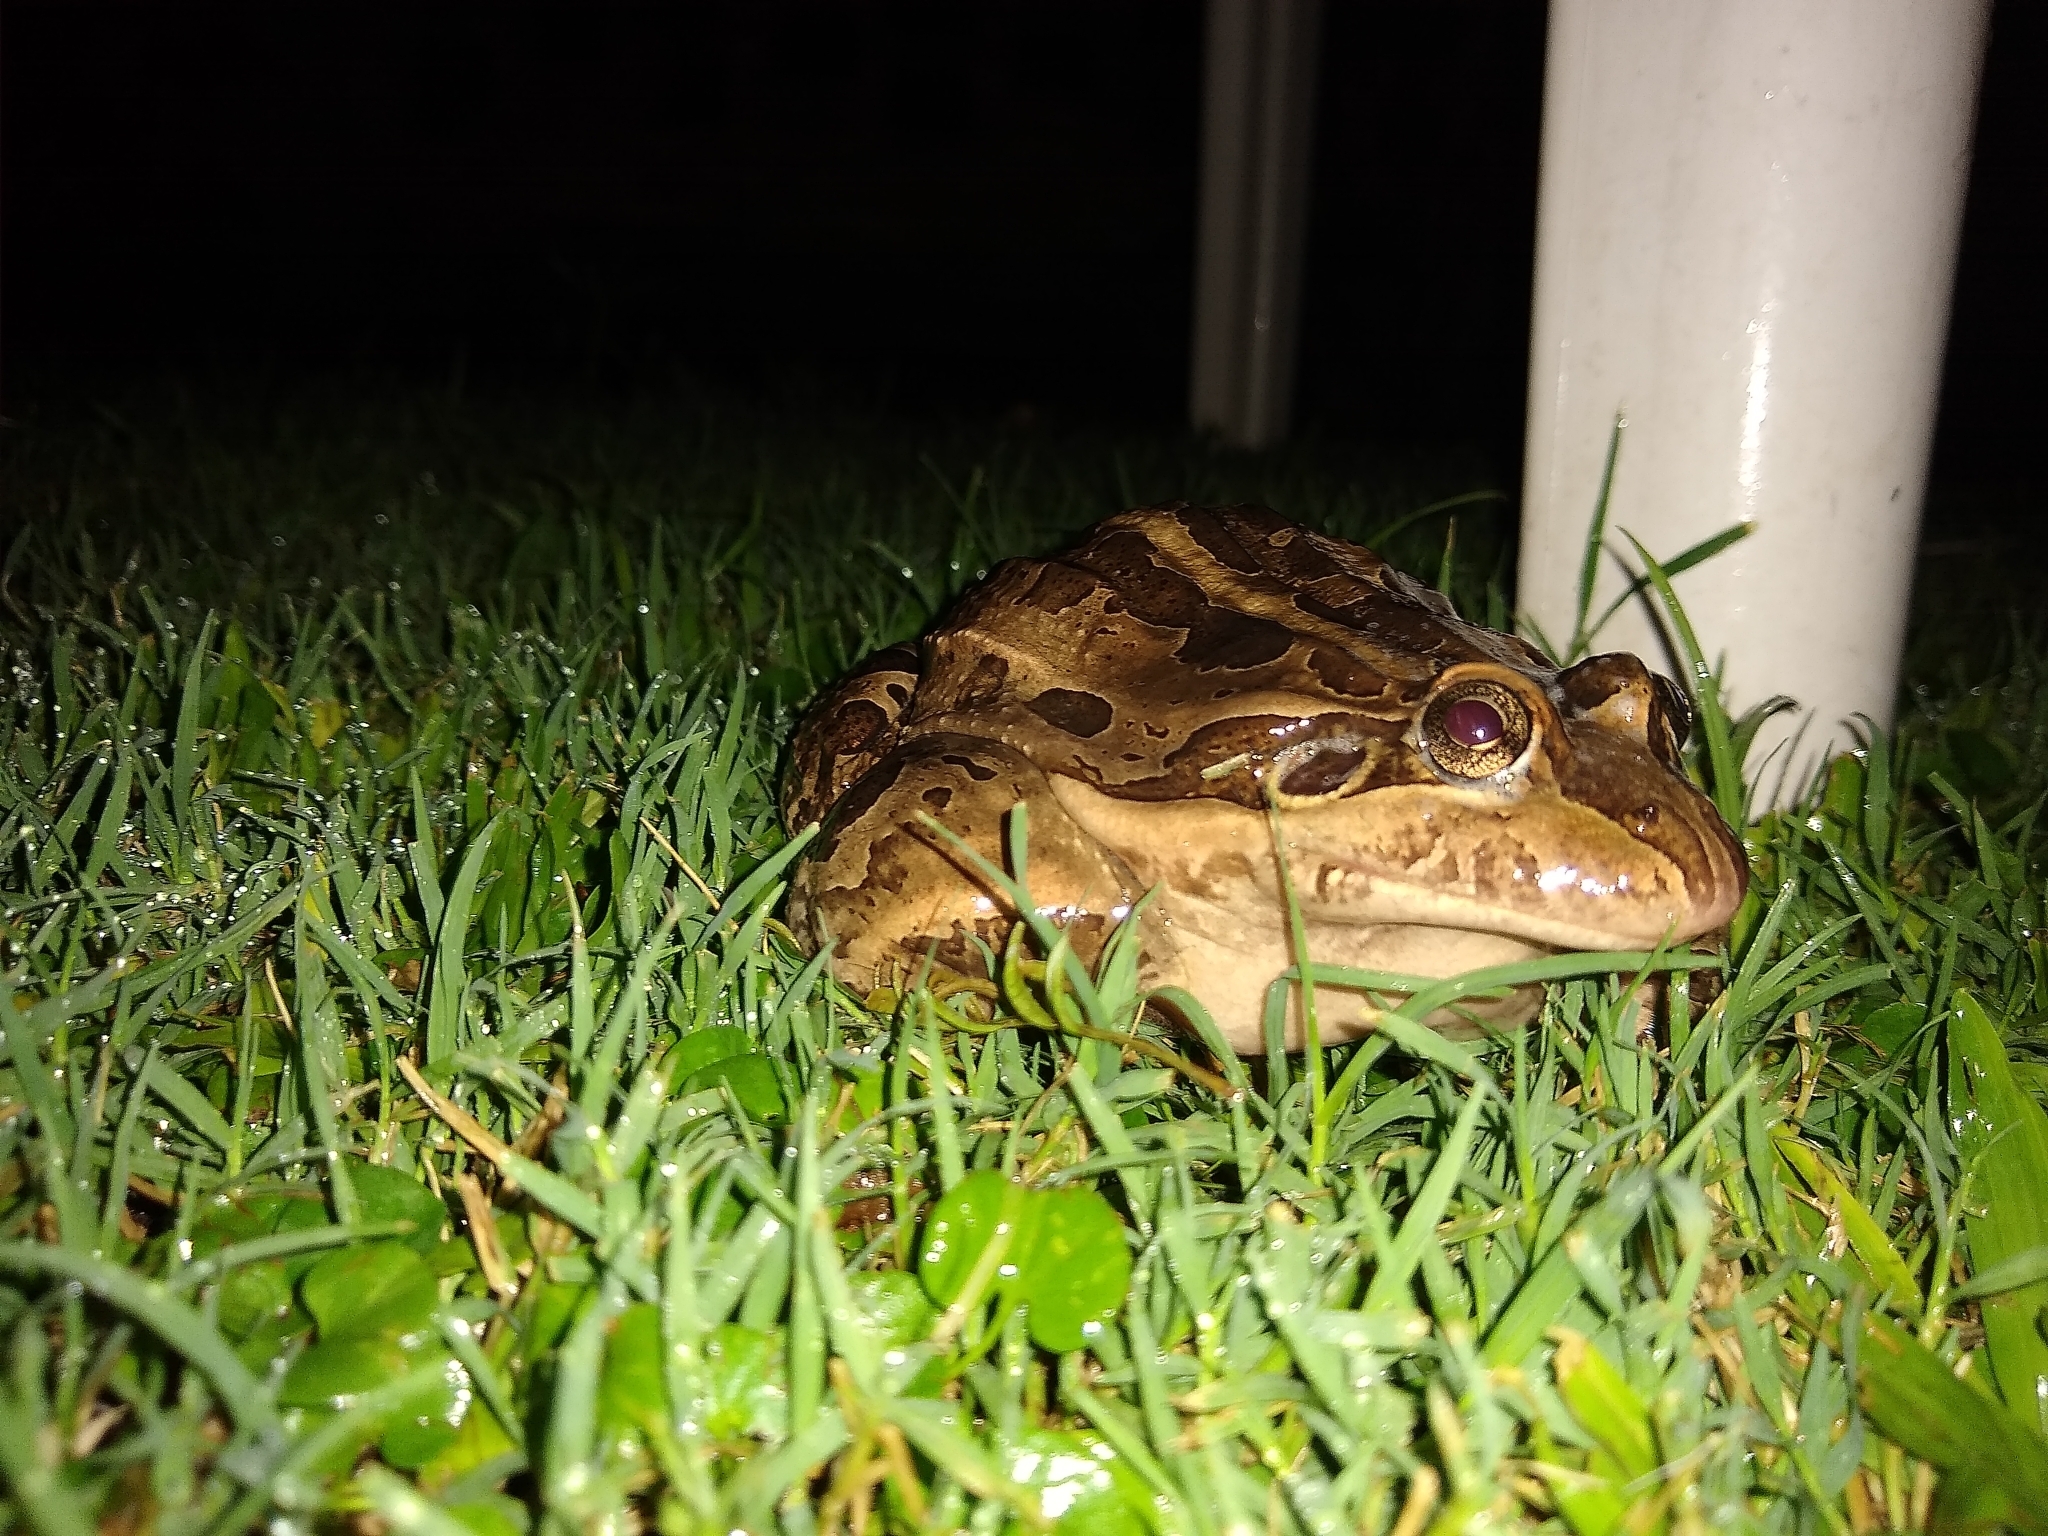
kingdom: Animalia
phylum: Chordata
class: Amphibia
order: Anura
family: Leptodactylidae
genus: Leptodactylus
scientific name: Leptodactylus luctator
